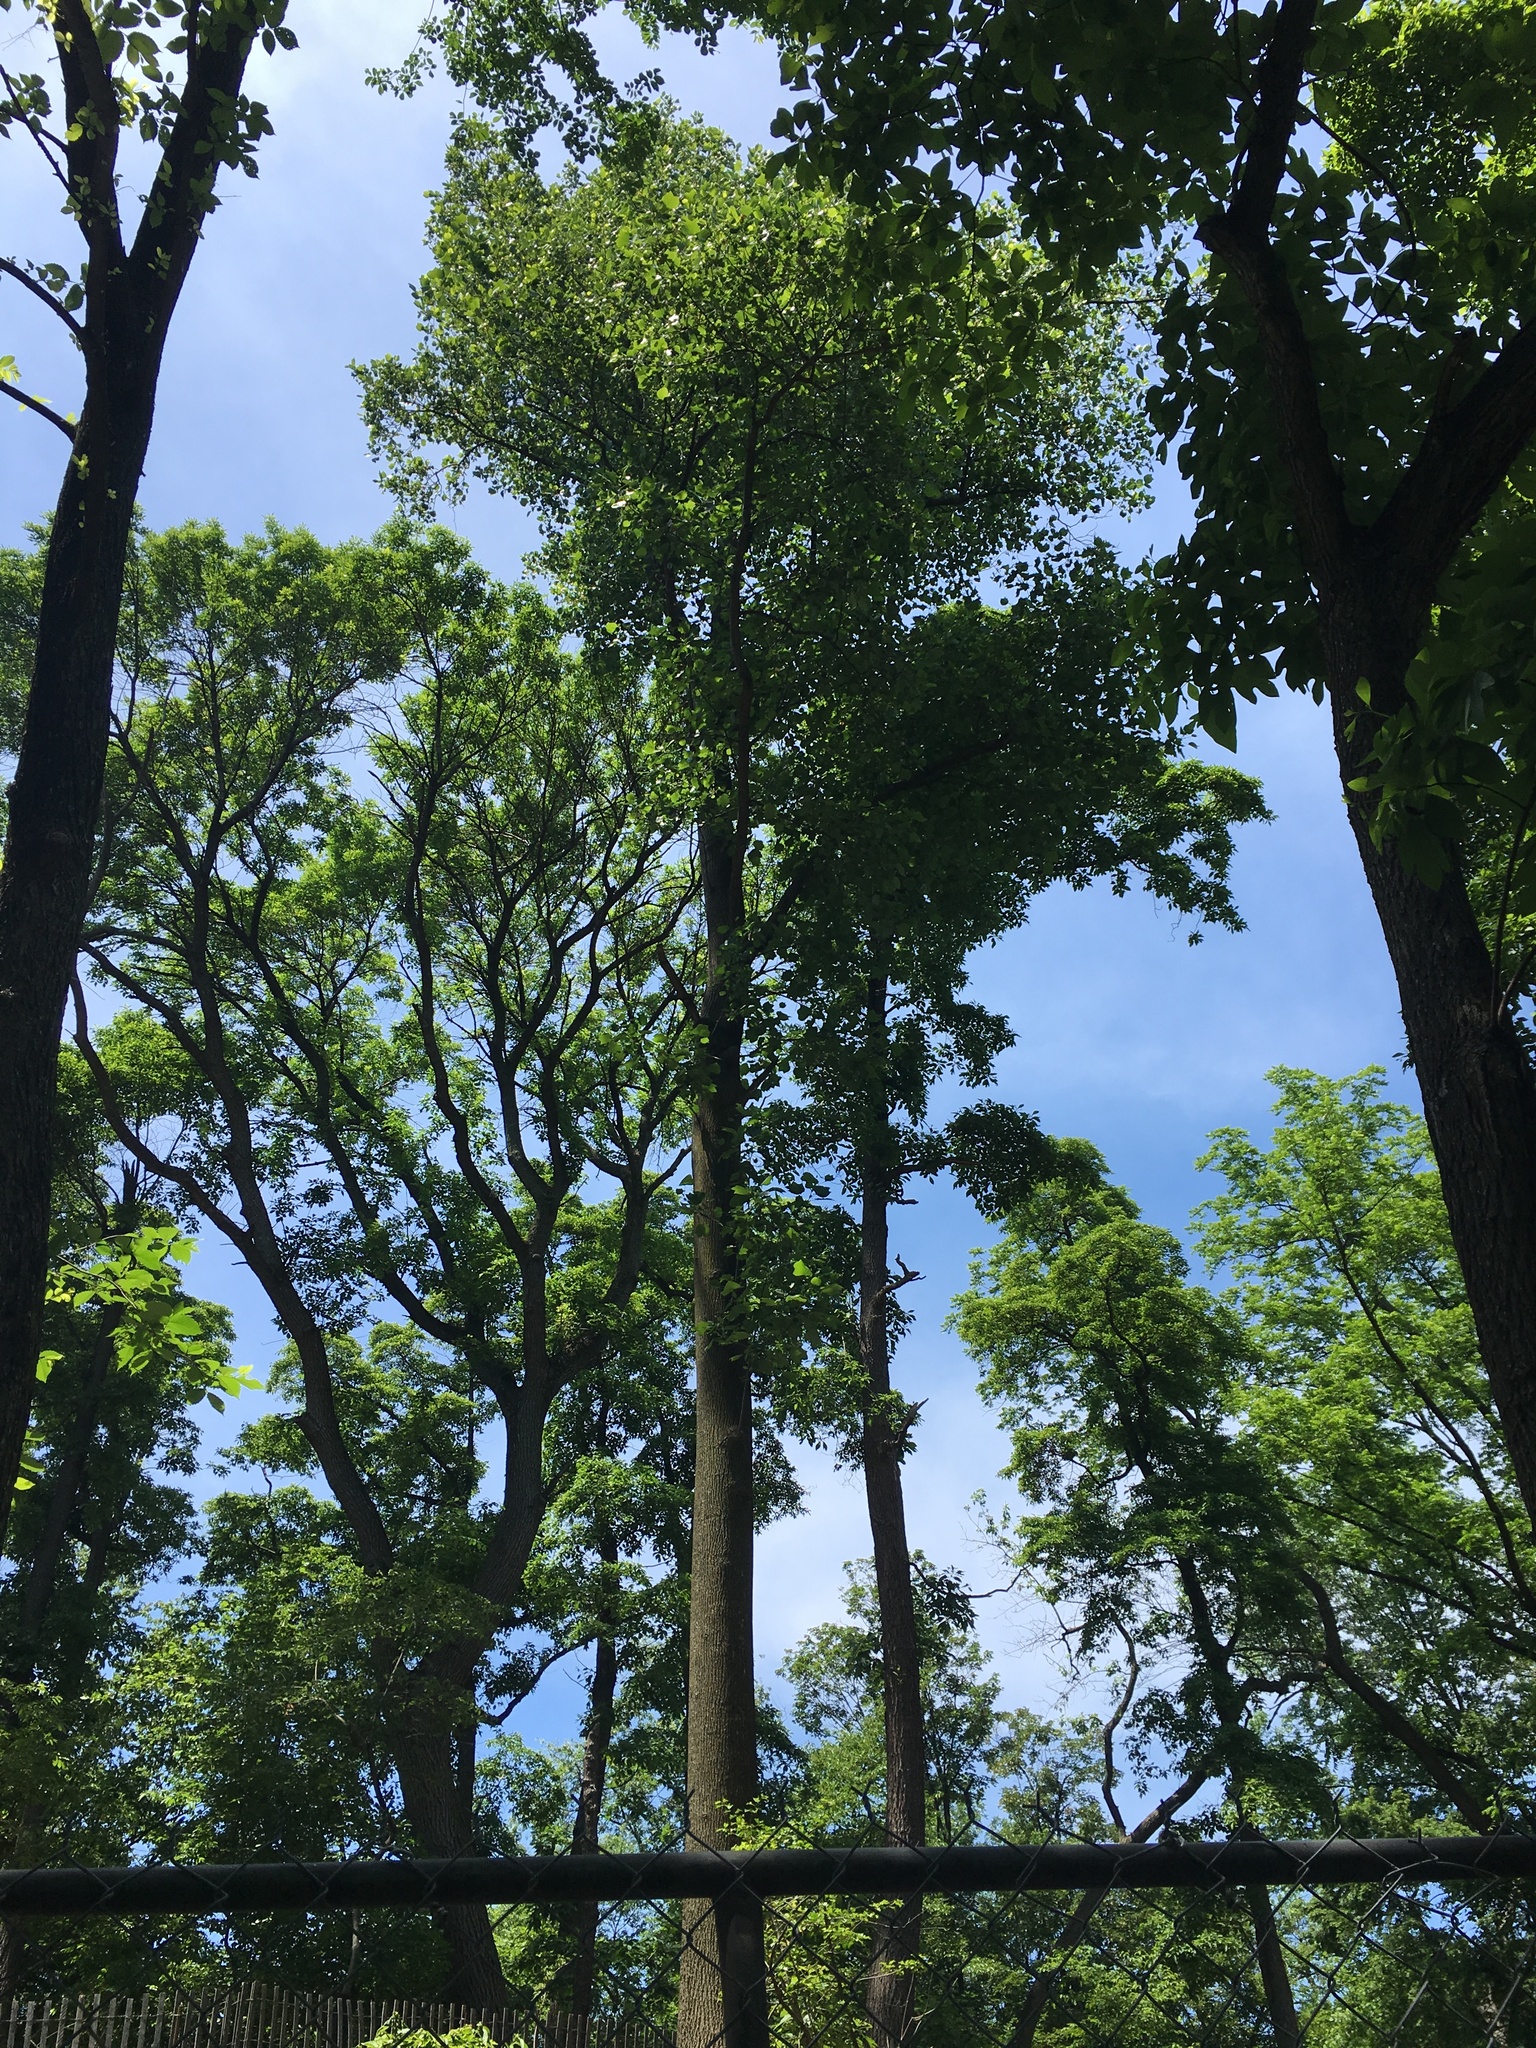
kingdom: Plantae
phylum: Tracheophyta
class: Magnoliopsida
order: Magnoliales
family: Magnoliaceae
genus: Liriodendron
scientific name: Liriodendron tulipifera
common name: Tulip tree
